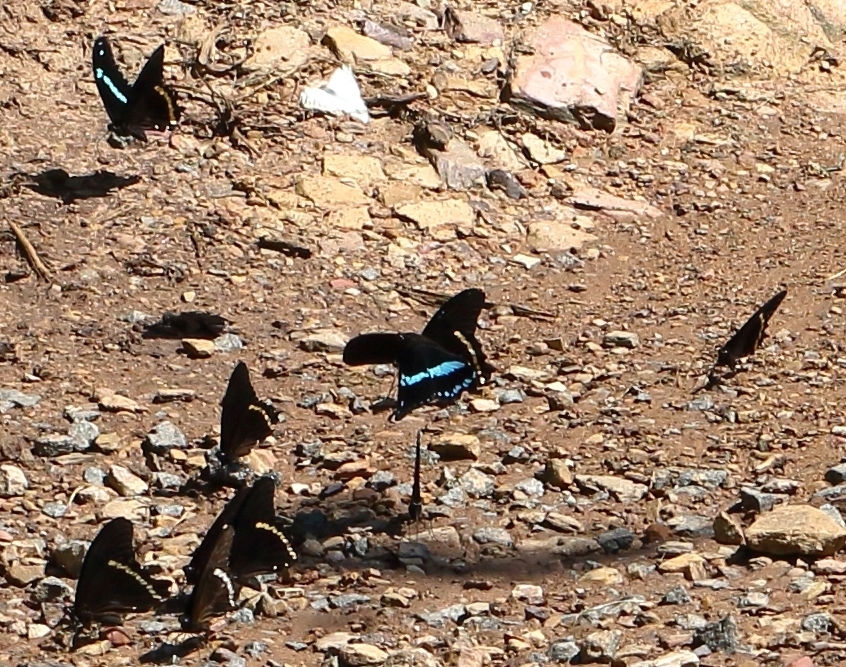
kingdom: Animalia
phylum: Arthropoda
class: Insecta
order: Lepidoptera
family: Papilionidae
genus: Papilio
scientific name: Papilio nireus
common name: Greenbanded swallowtail
